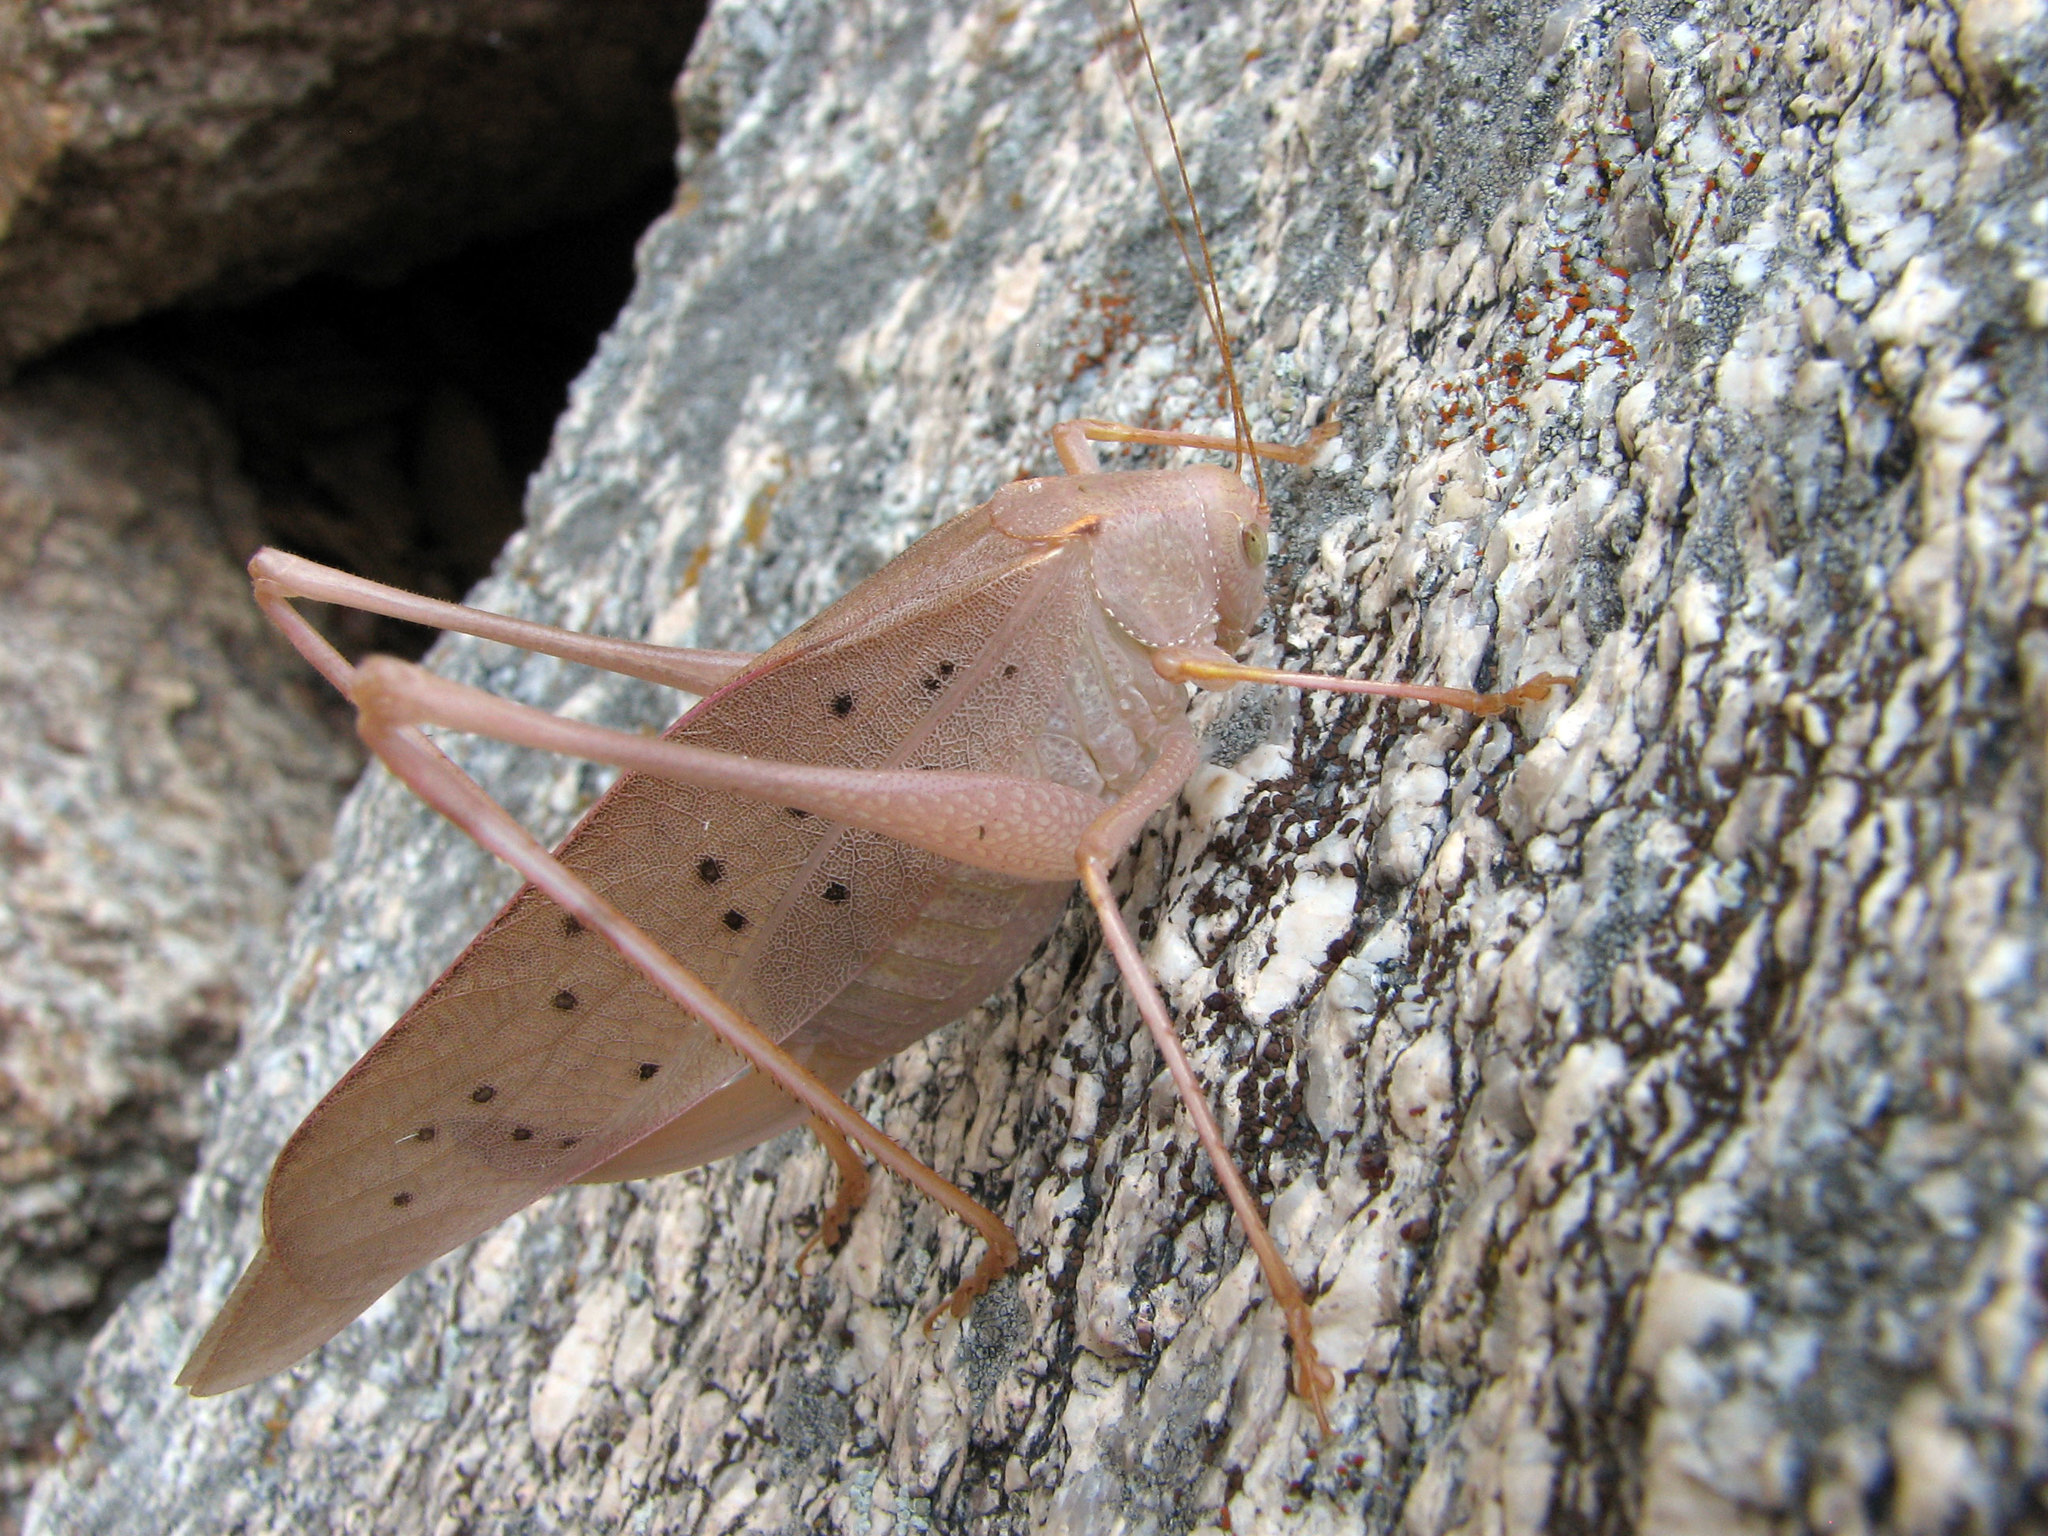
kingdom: Animalia
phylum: Arthropoda
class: Insecta
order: Orthoptera
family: Tettigoniidae
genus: Amblycorypha
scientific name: Amblycorypha insolita
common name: Big bend false katydid
